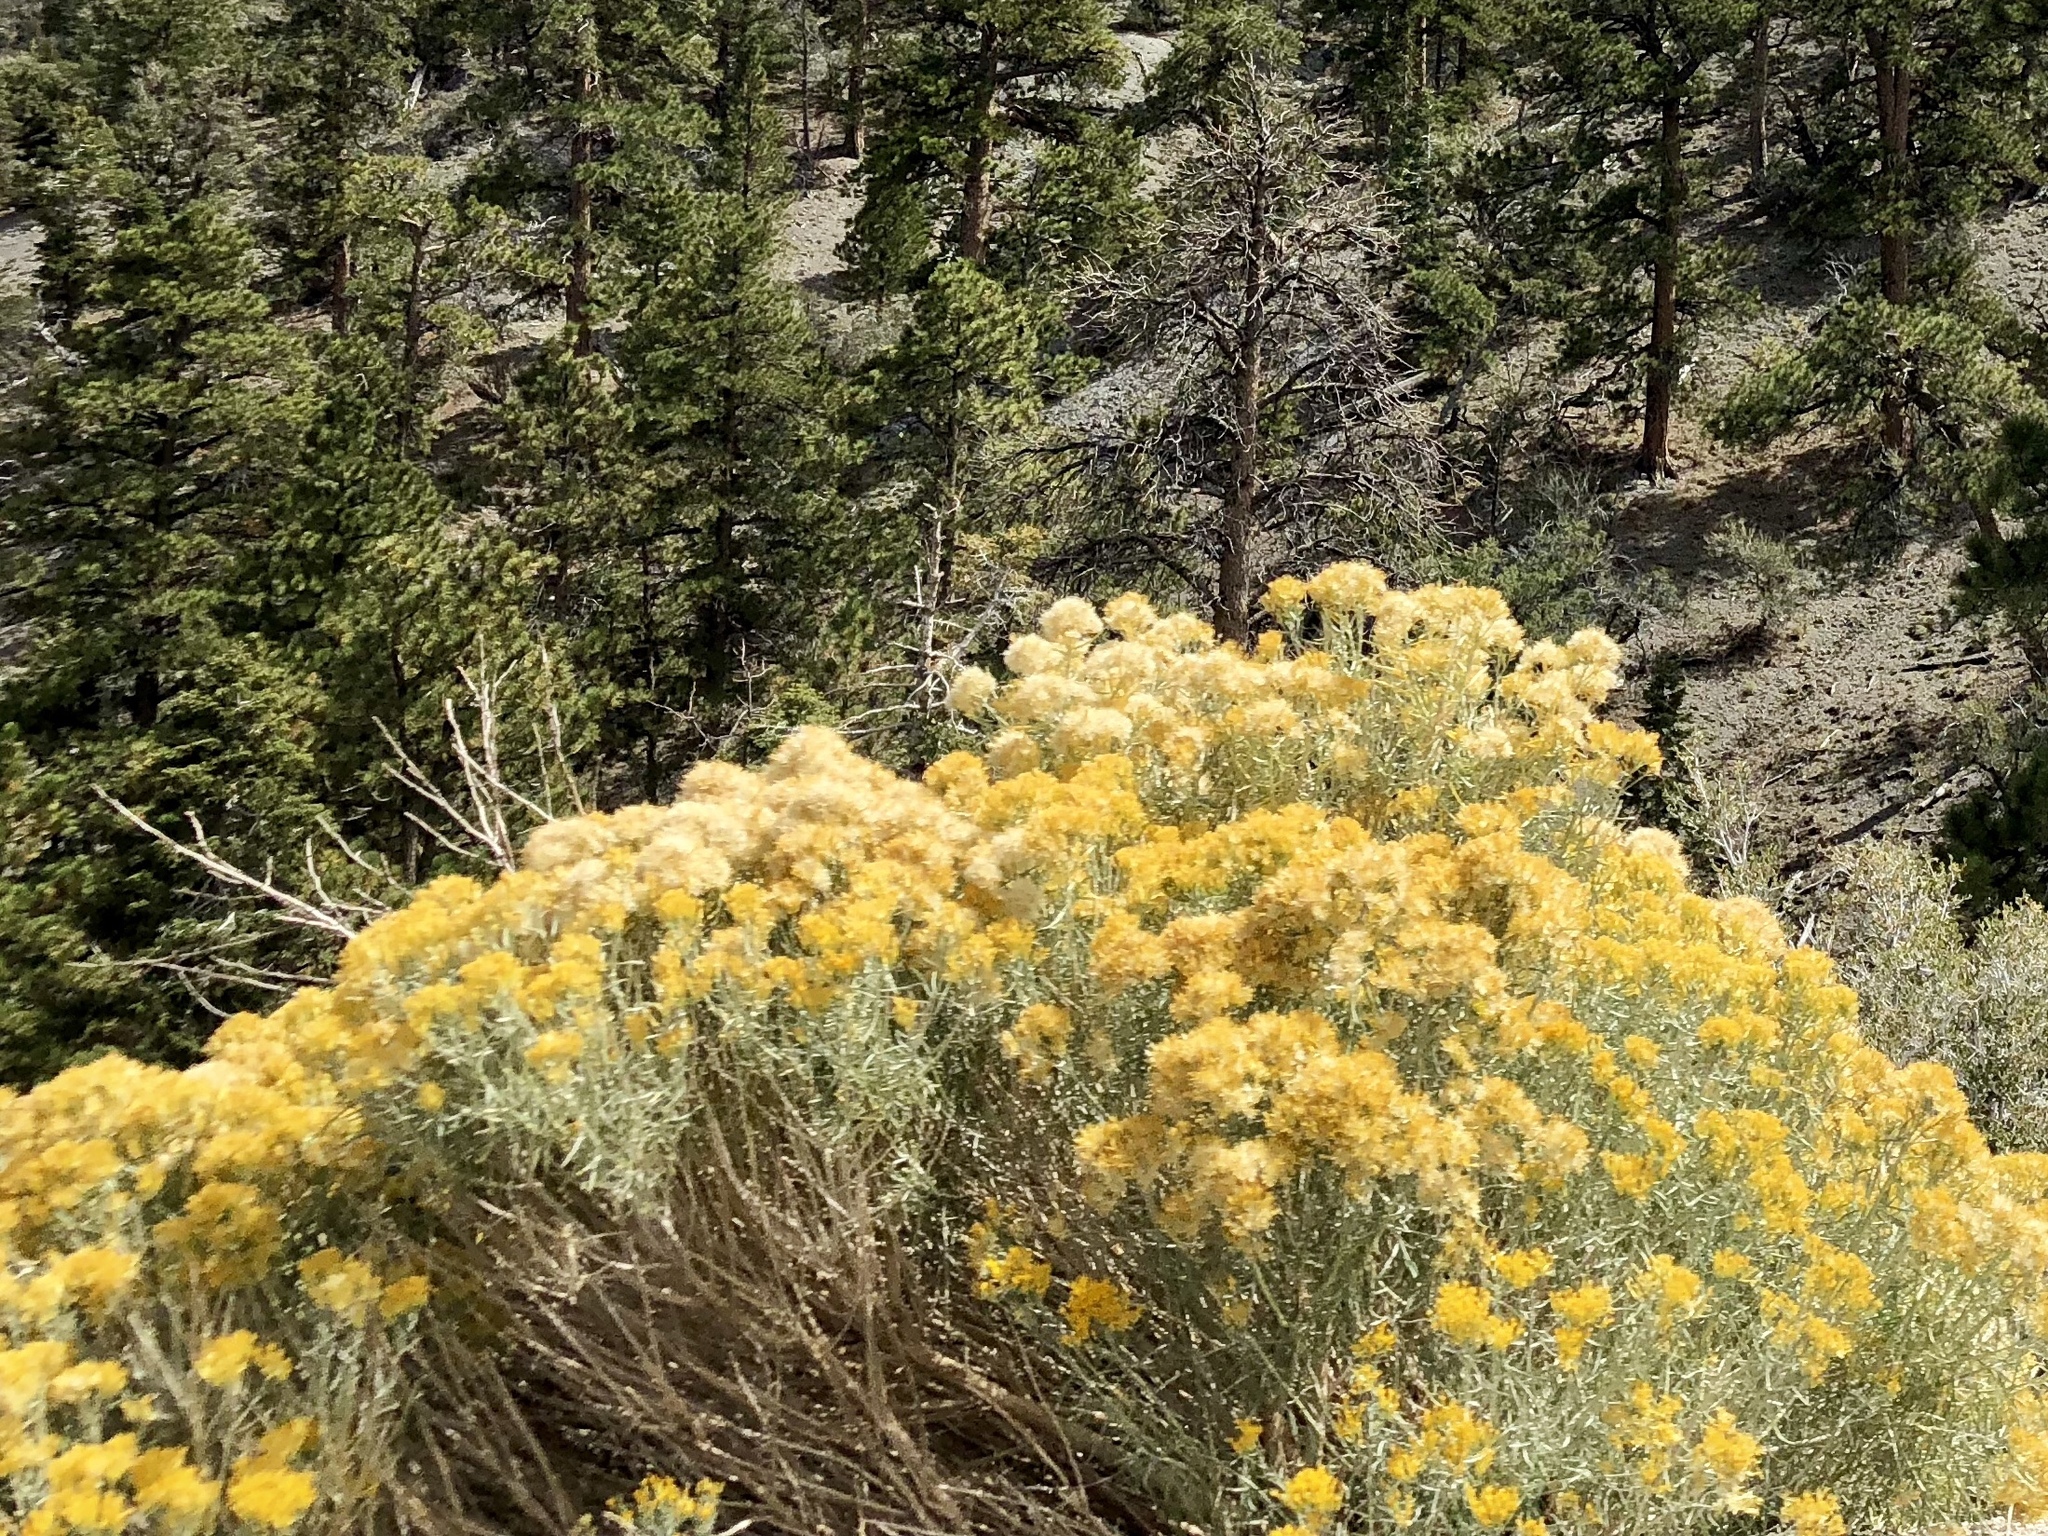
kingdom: Plantae
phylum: Tracheophyta
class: Magnoliopsida
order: Asterales
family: Asteraceae
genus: Ericameria
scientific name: Ericameria nauseosa
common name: Rubber rabbitbrush
